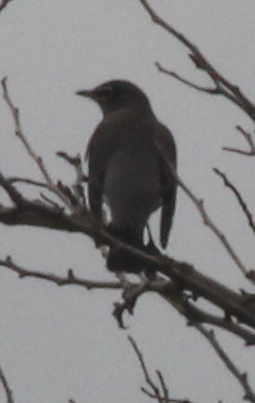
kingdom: Animalia
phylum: Chordata
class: Aves
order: Passeriformes
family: Turdidae
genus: Turdus
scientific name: Turdus migratorius
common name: American robin
